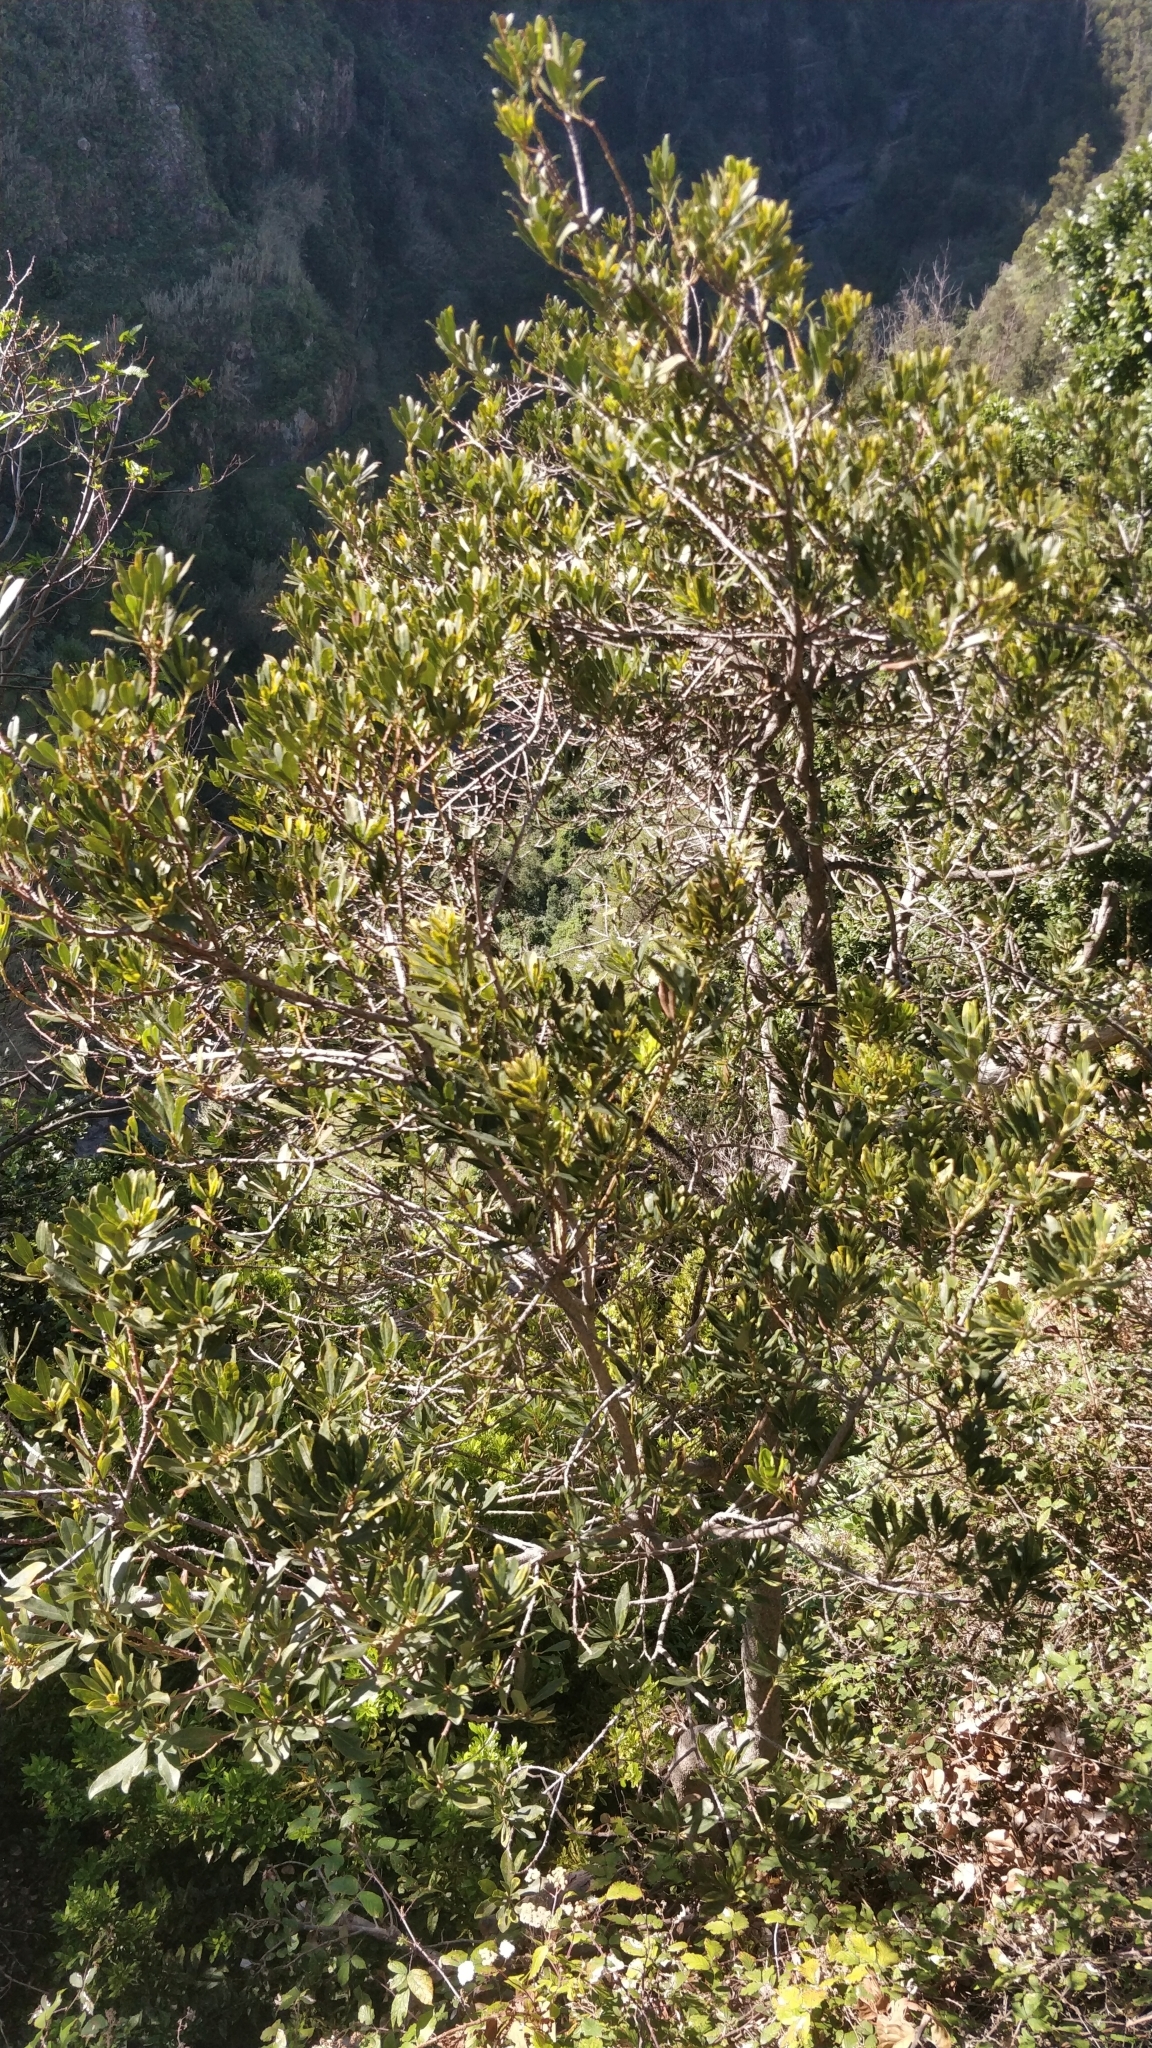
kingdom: Plantae
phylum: Tracheophyta
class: Magnoliopsida
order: Fagales
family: Myricaceae
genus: Morella
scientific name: Morella faya
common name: Firetree
